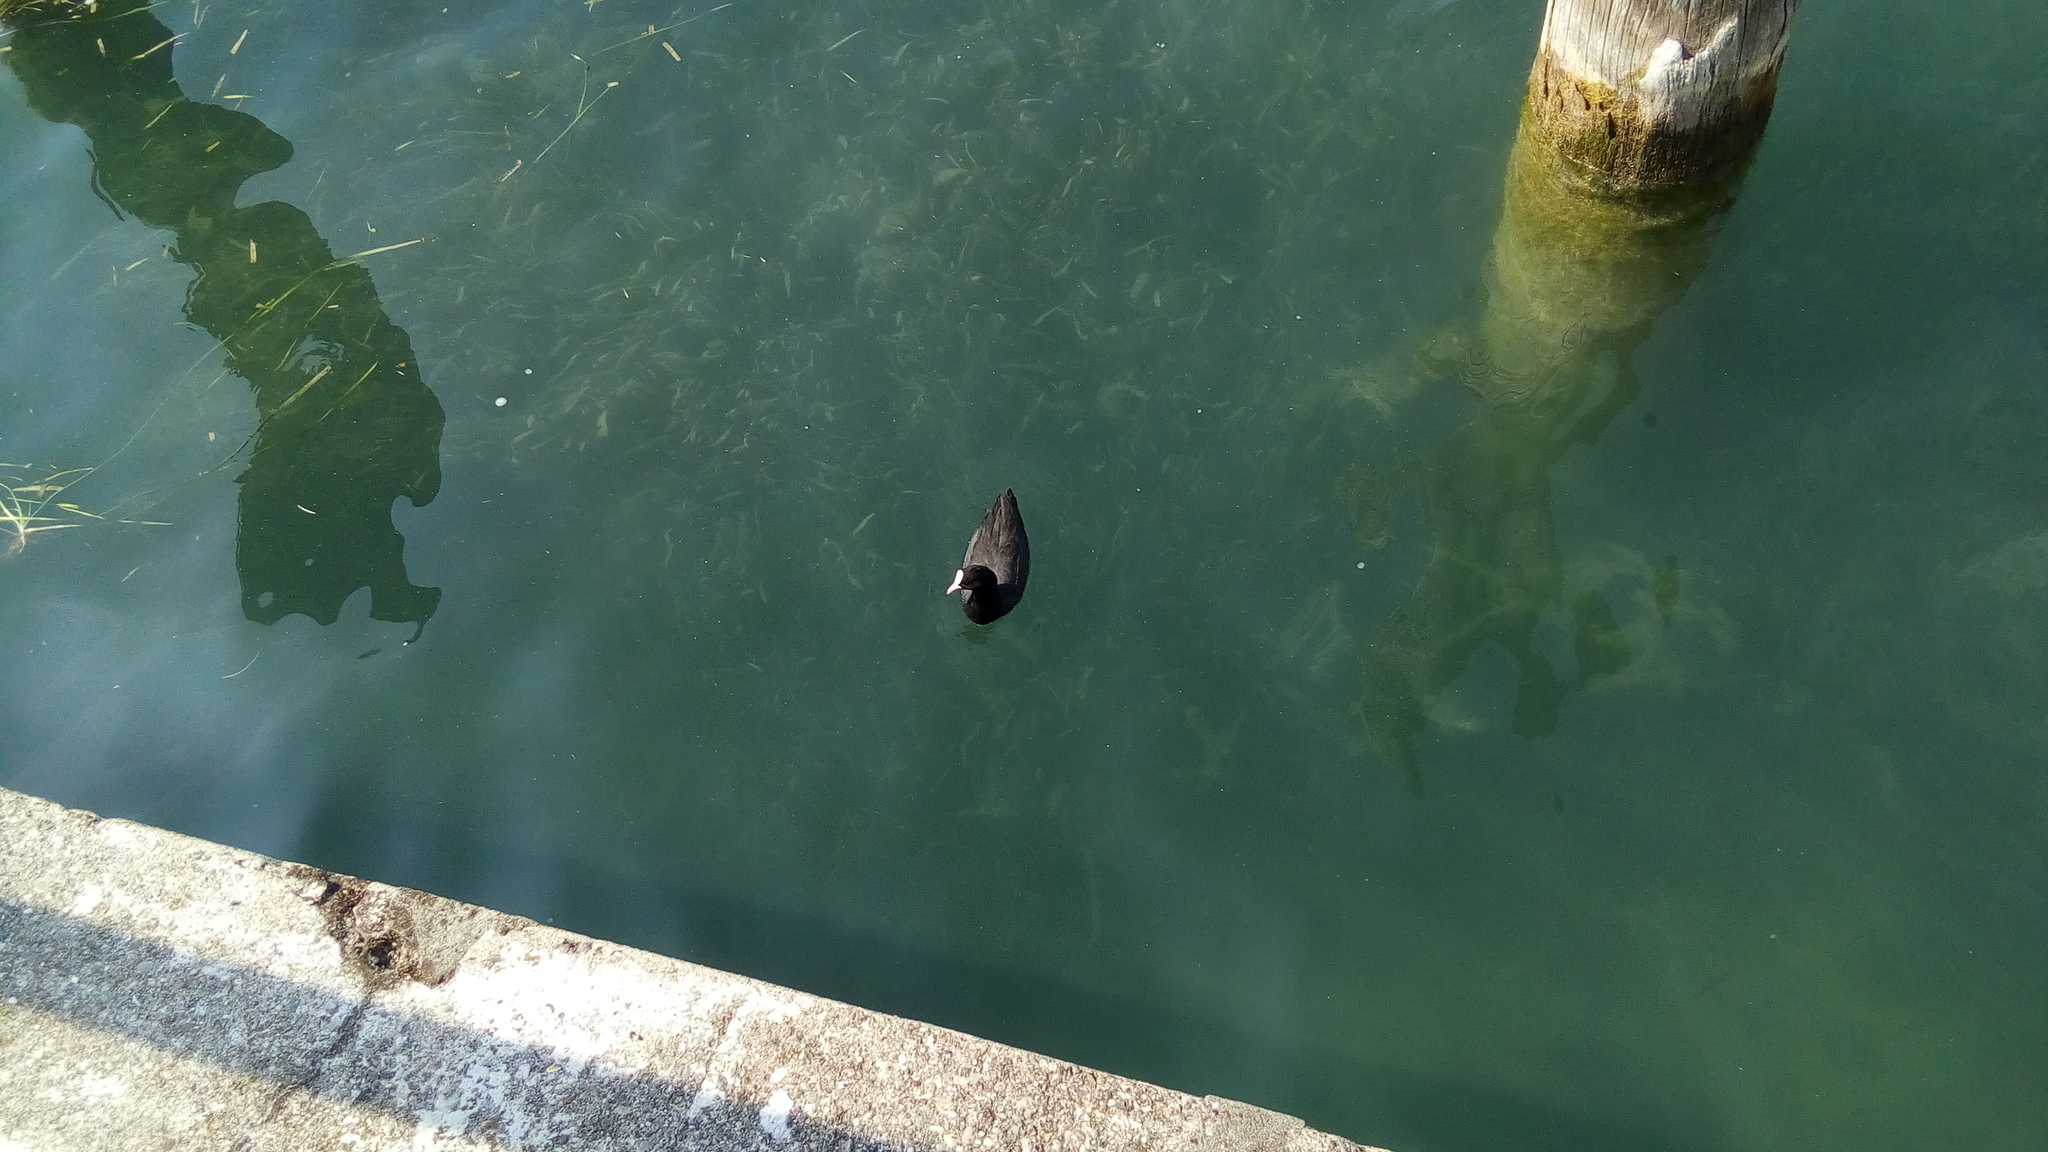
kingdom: Animalia
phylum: Chordata
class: Aves
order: Gruiformes
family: Rallidae
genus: Fulica
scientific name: Fulica atra
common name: Eurasian coot
